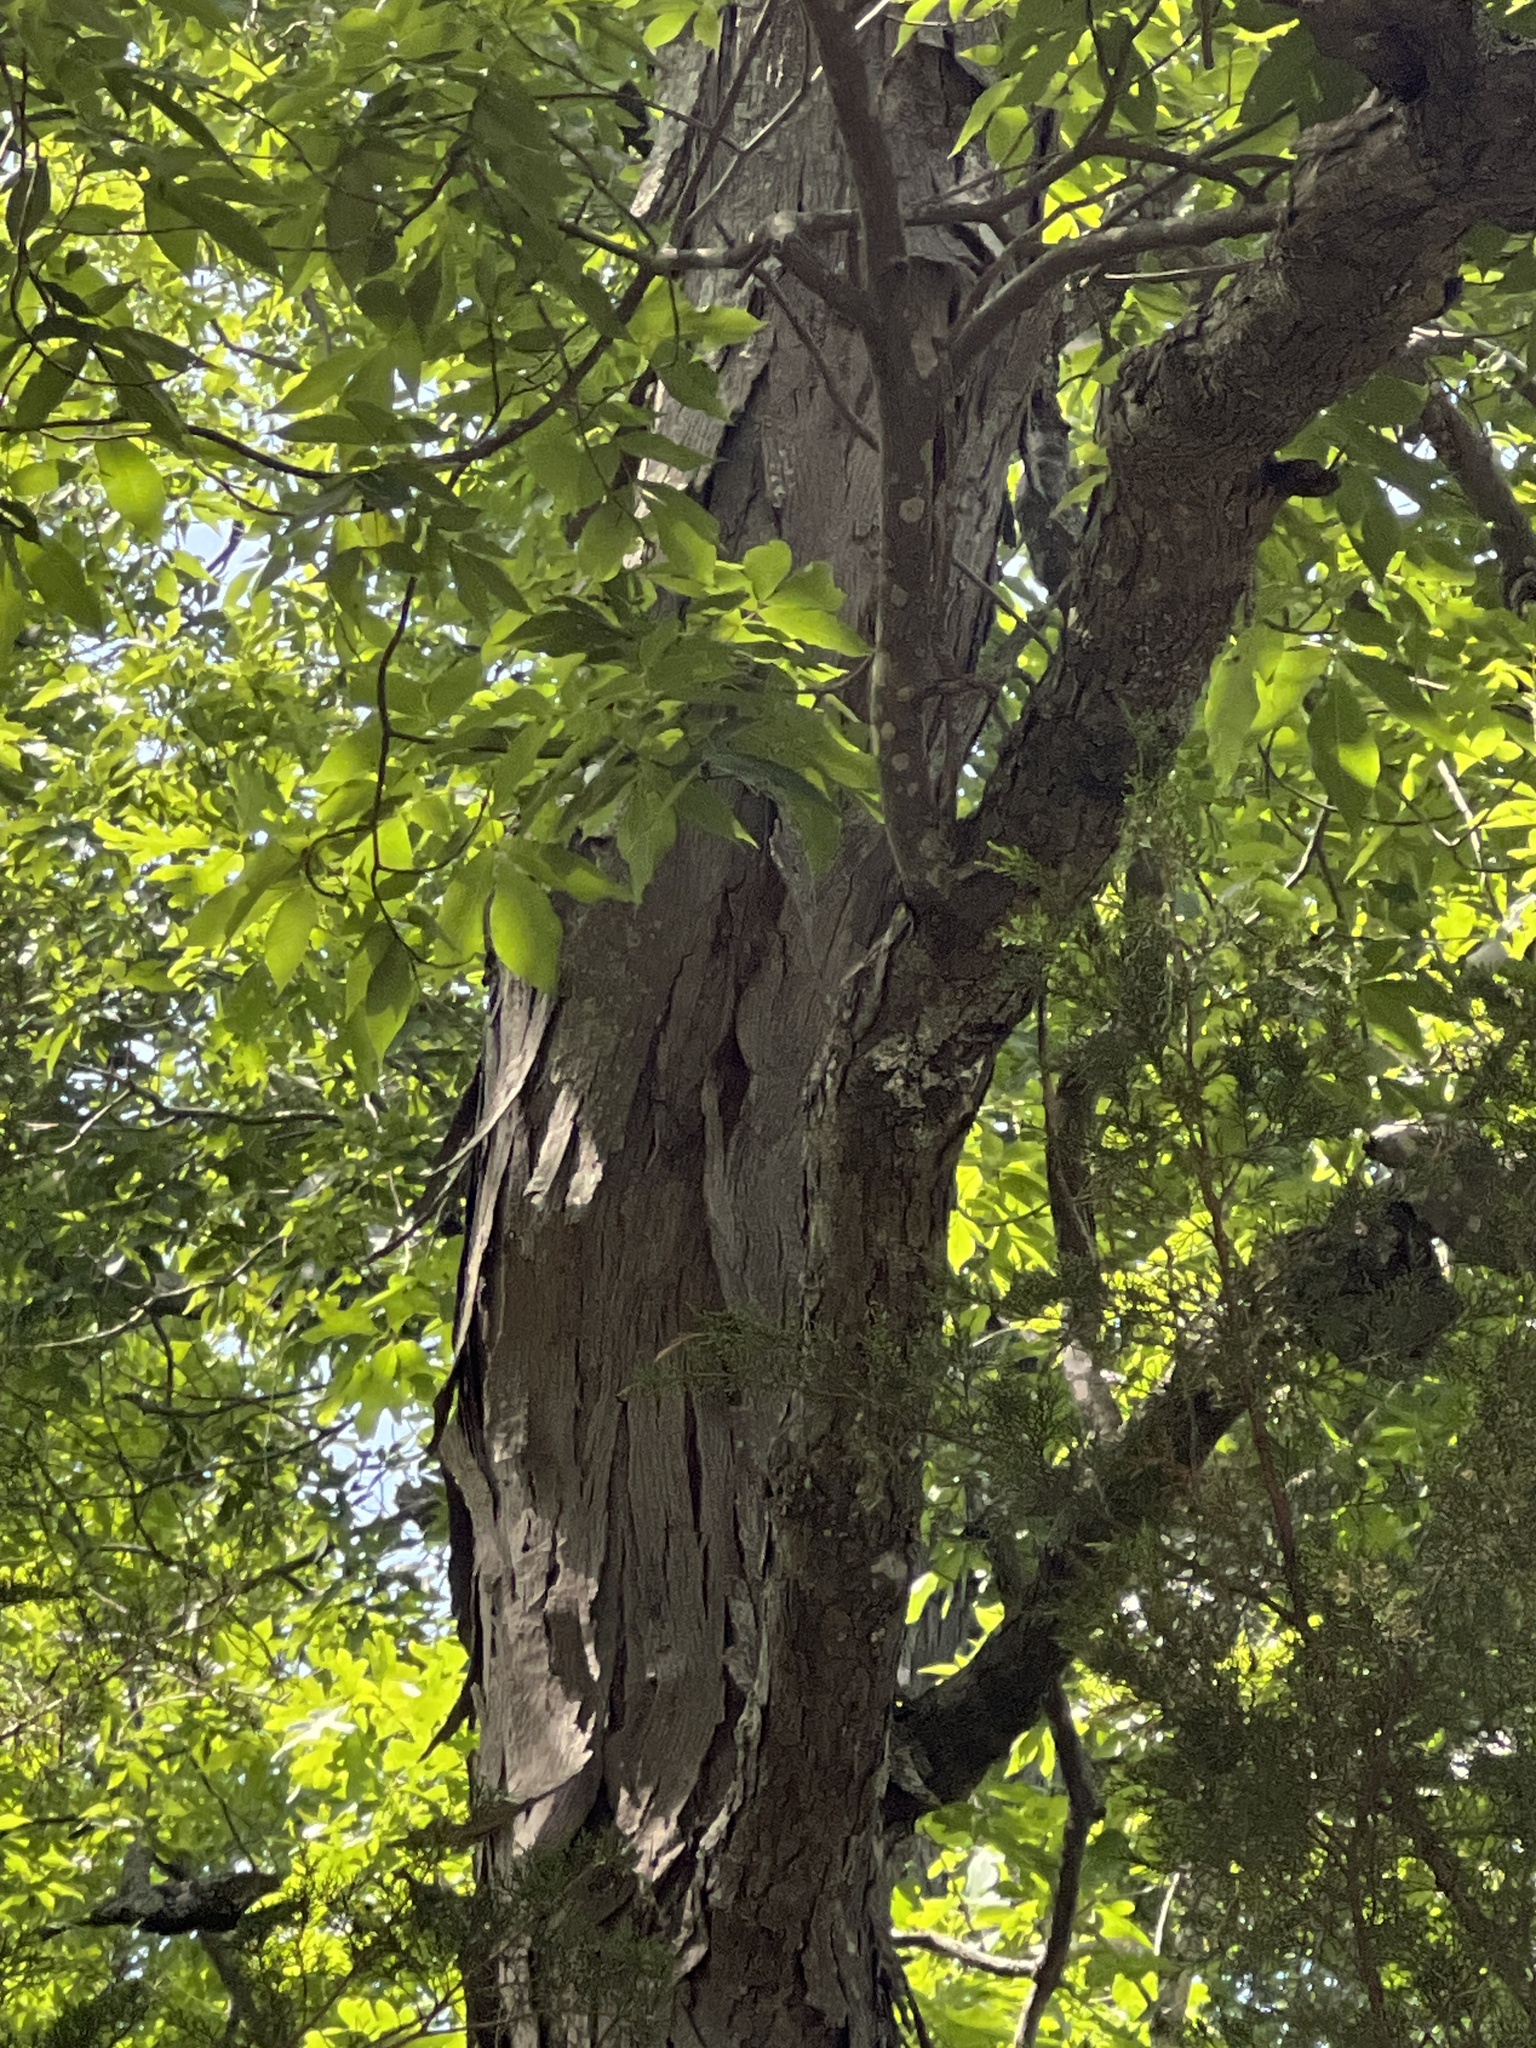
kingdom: Plantae
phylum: Tracheophyta
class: Magnoliopsida
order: Fagales
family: Juglandaceae
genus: Carya
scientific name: Carya carolinae-septentrionalis
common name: Carolina hickory
